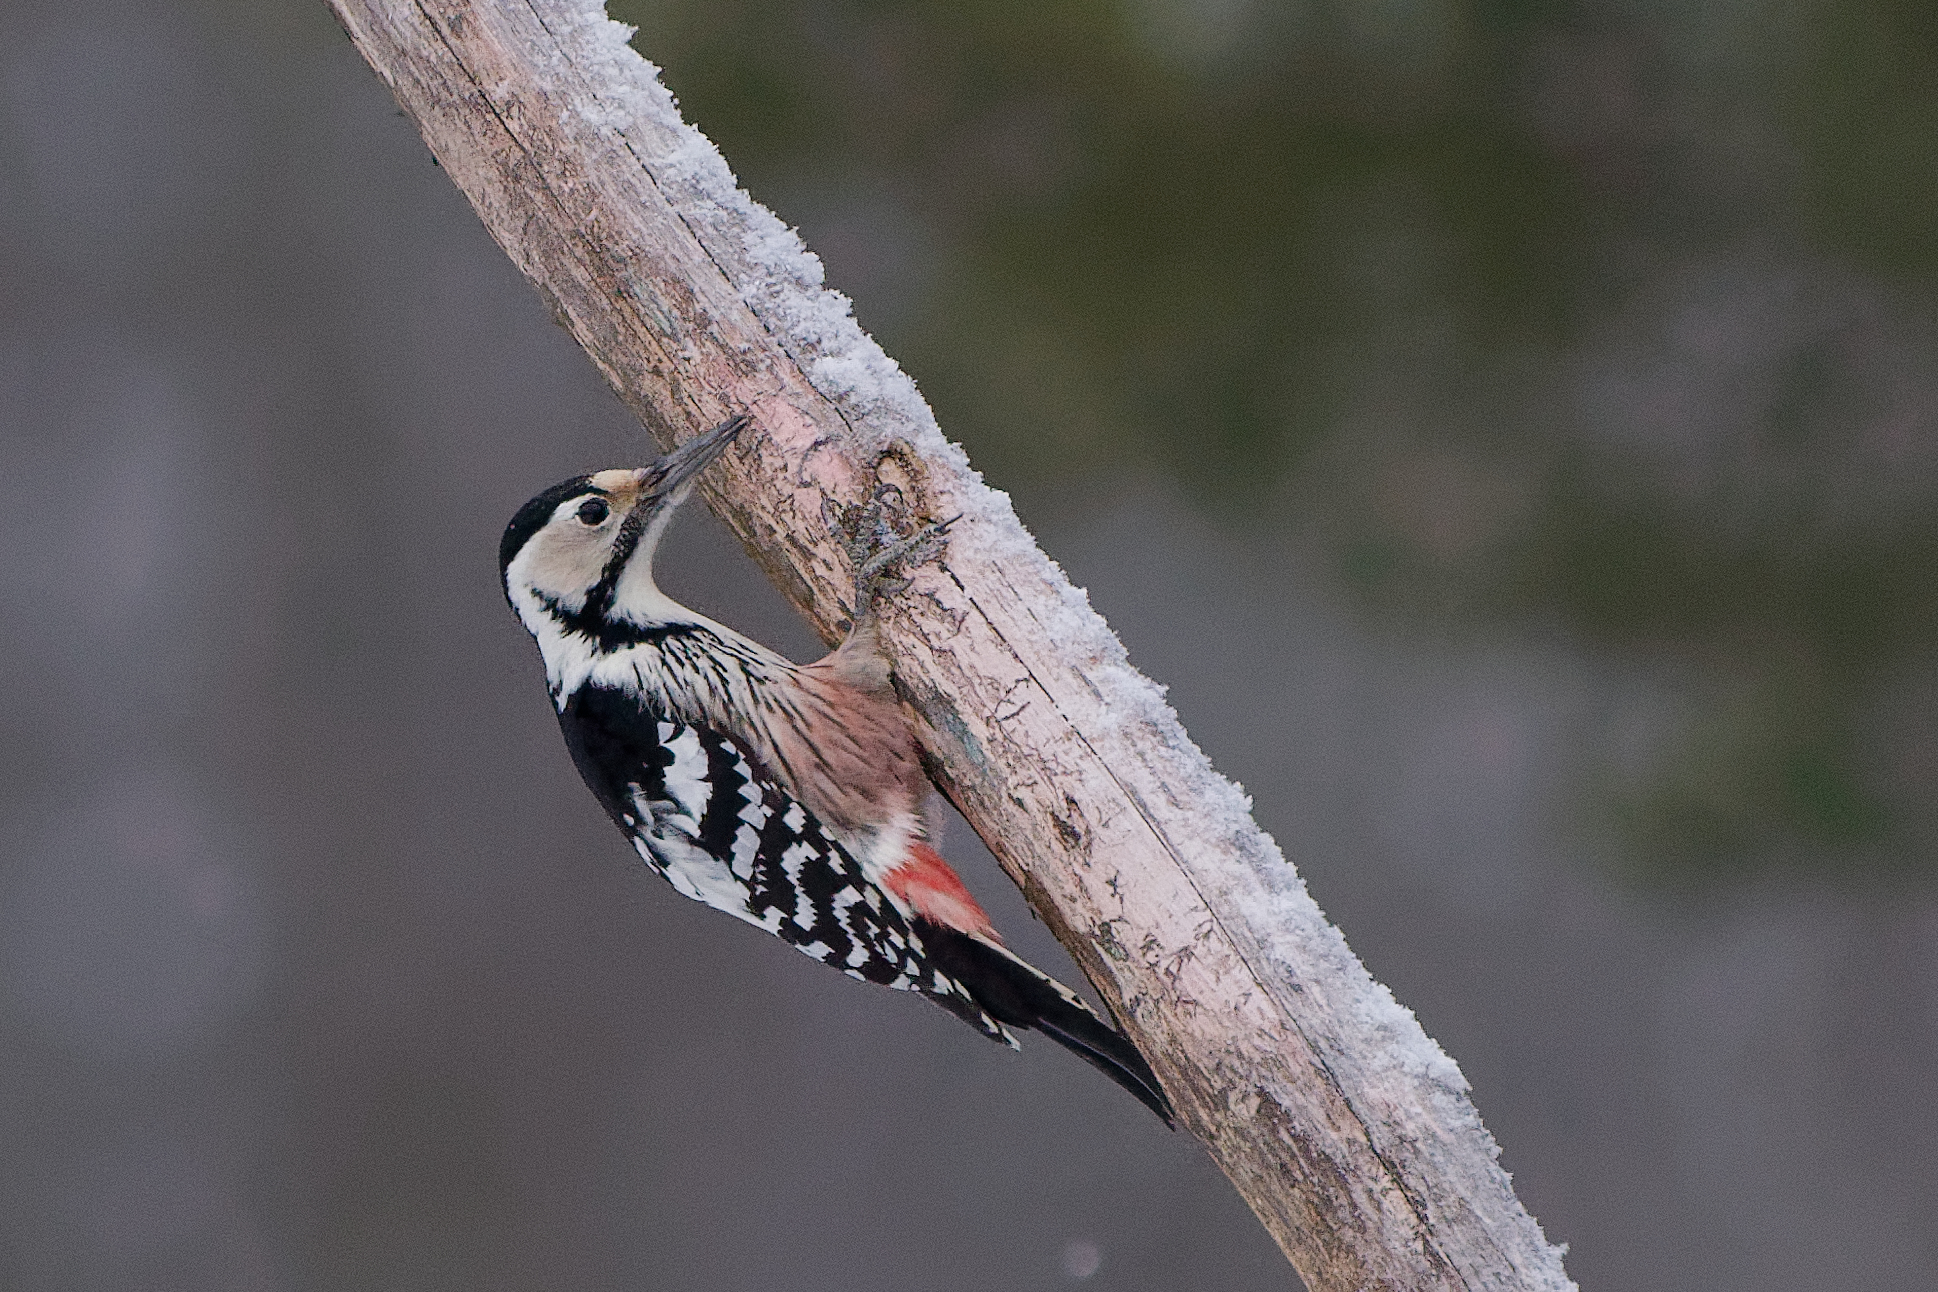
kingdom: Animalia
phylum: Chordata
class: Aves
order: Piciformes
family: Picidae
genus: Dendrocopos
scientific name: Dendrocopos leucotos
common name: White-backed woodpecker
